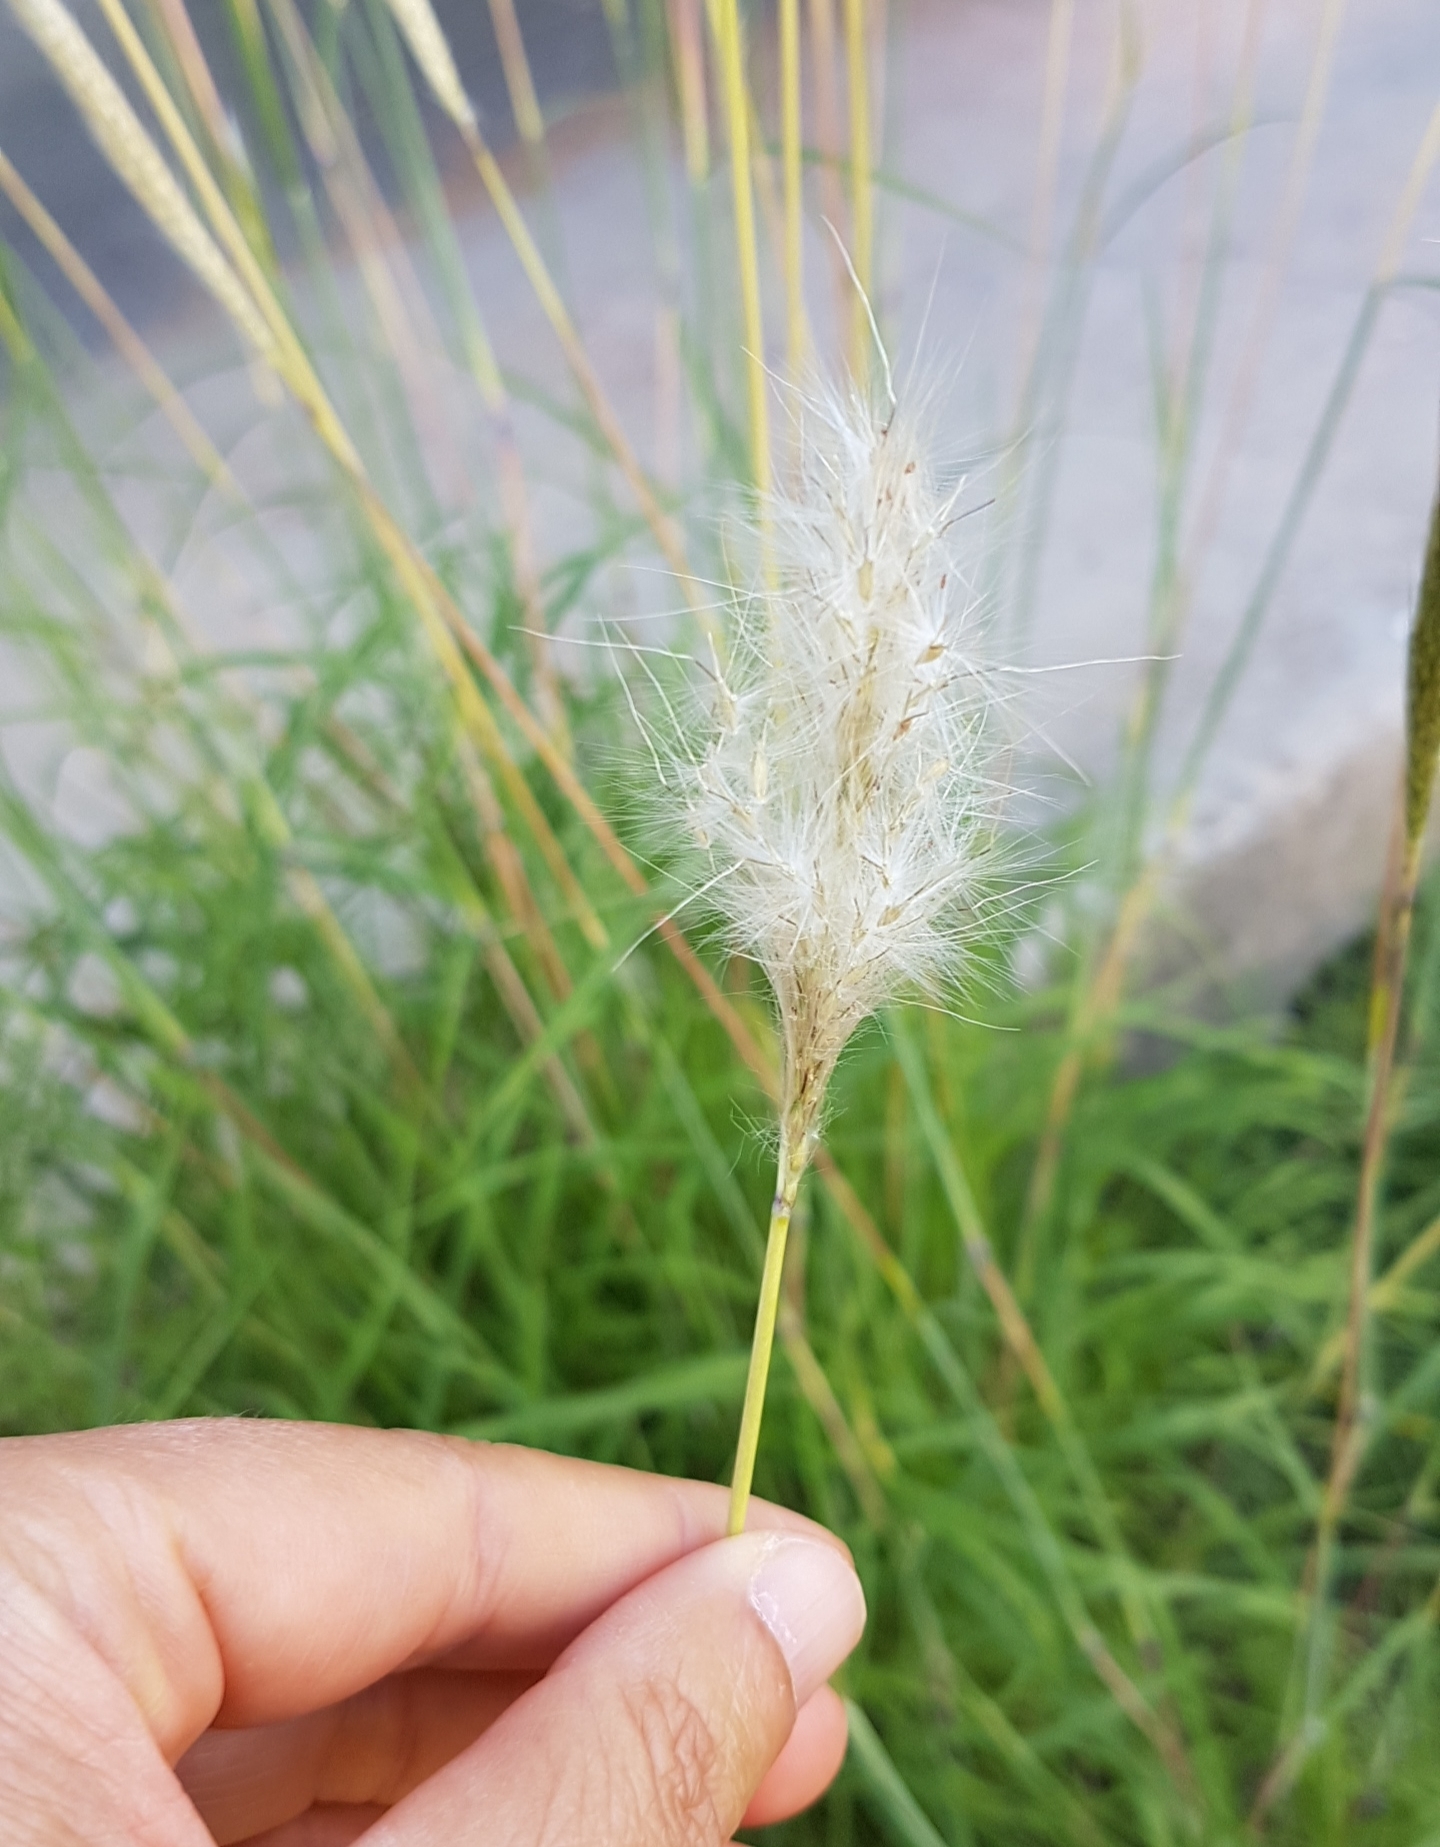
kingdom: Plantae
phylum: Tracheophyta
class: Liliopsida
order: Poales
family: Poaceae
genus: Bothriochloa
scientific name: Bothriochloa barbinodis
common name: Cane bluestem
